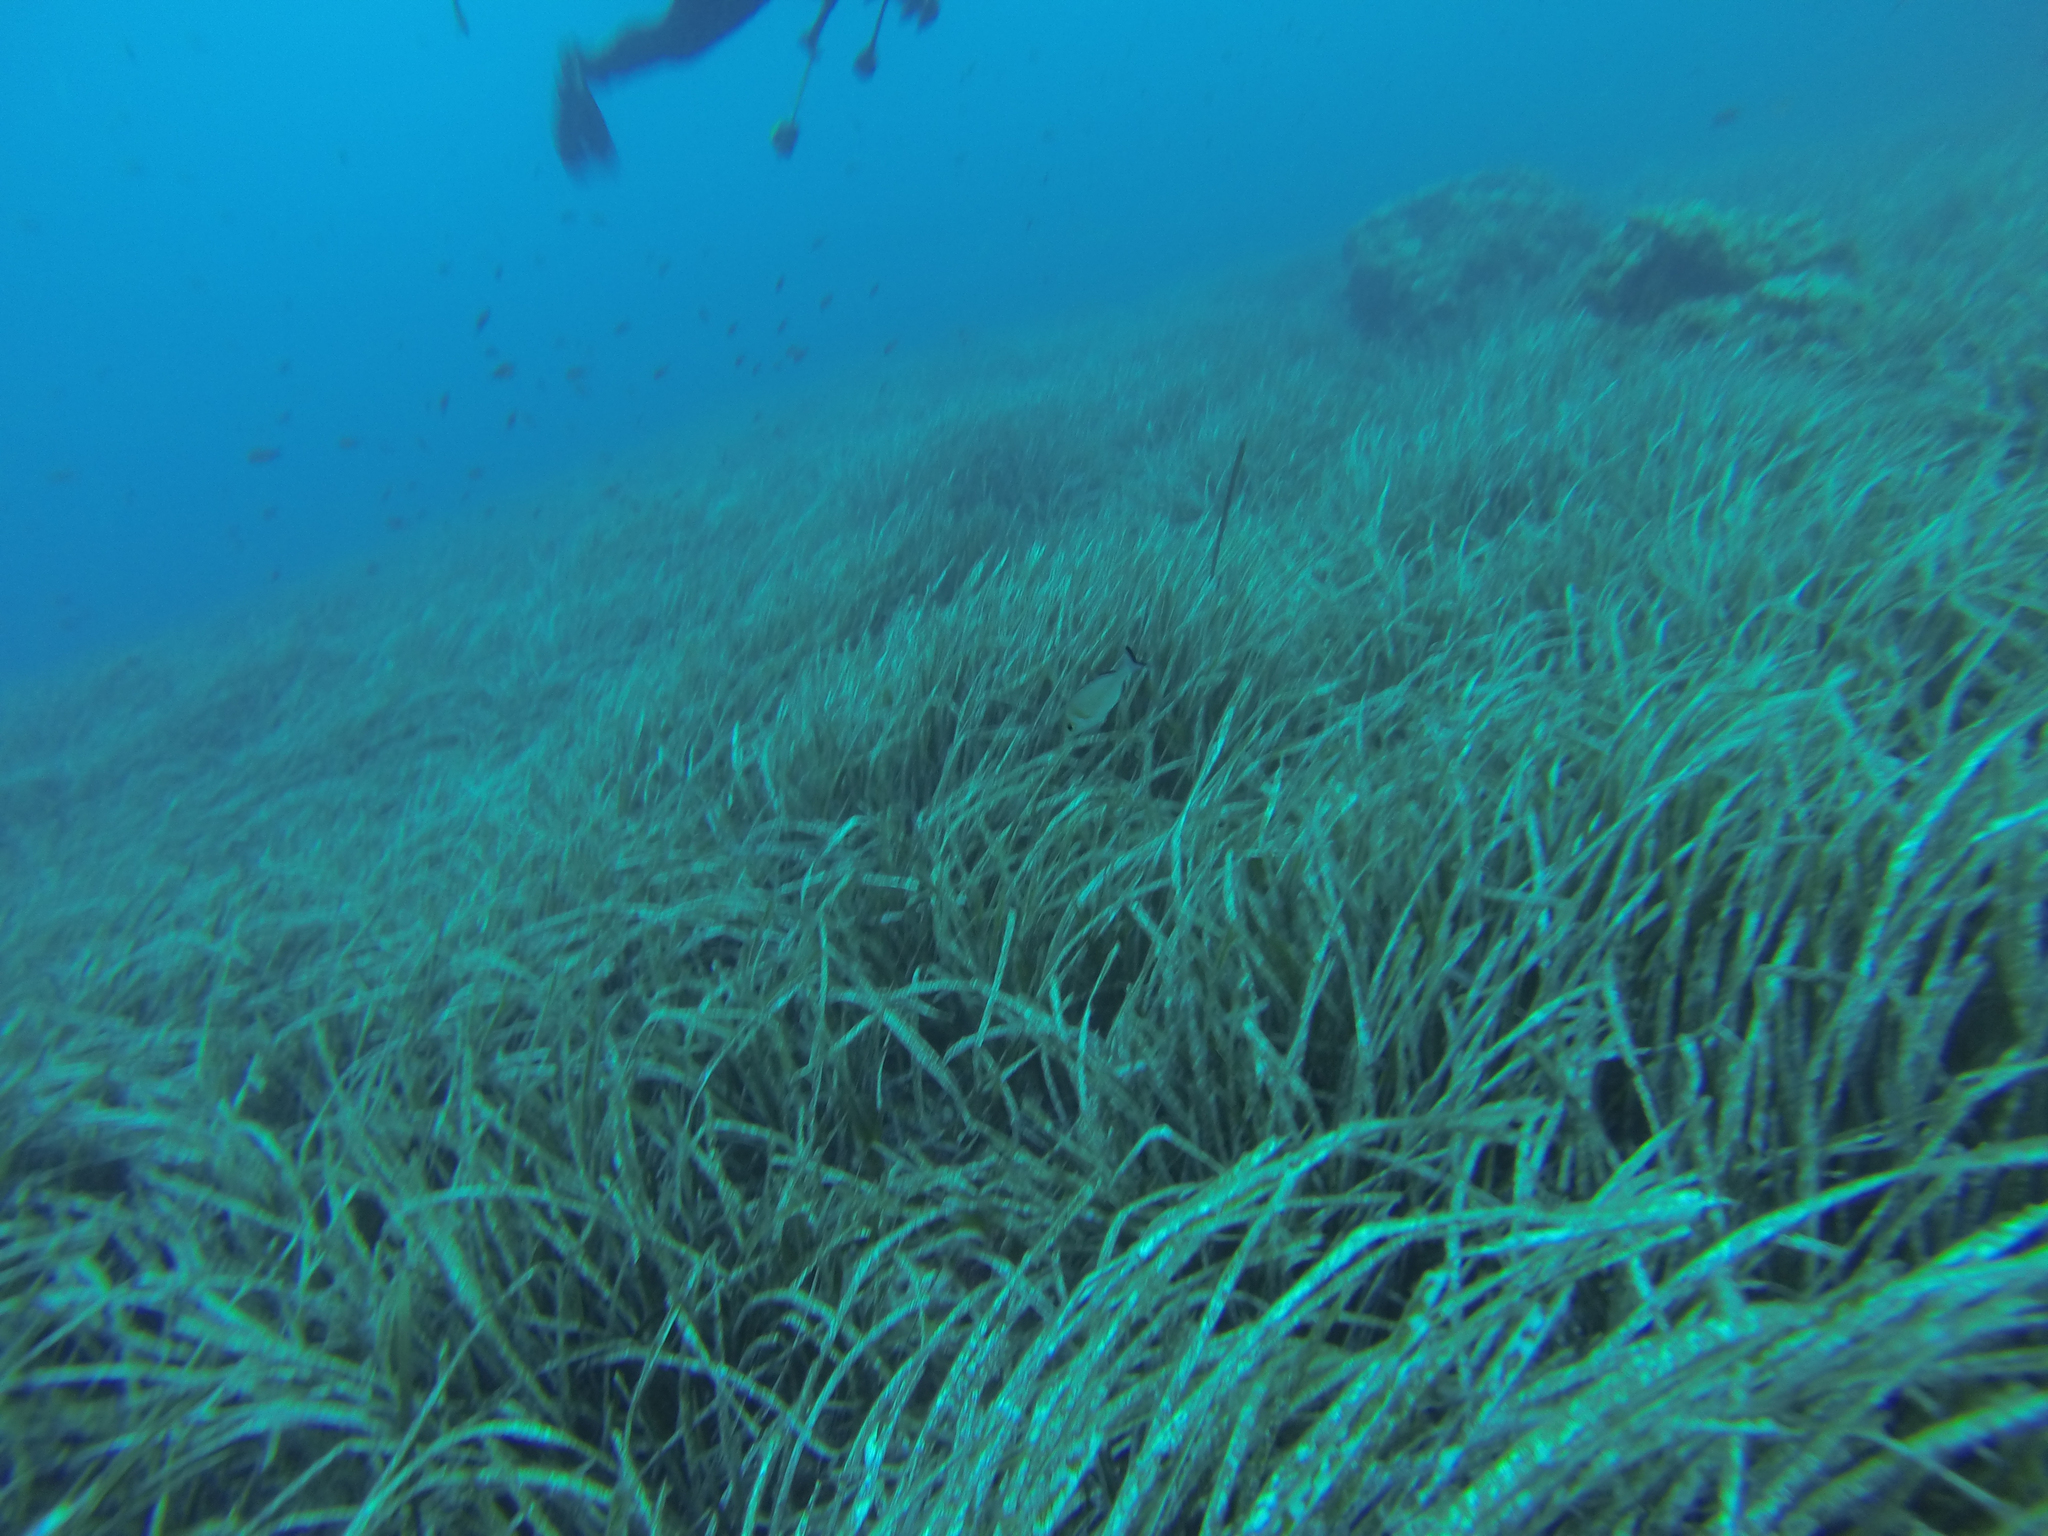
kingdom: Animalia
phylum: Chordata
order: Perciformes
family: Sparidae
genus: Spondyliosoma
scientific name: Spondyliosoma cantharus
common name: Black seabream
